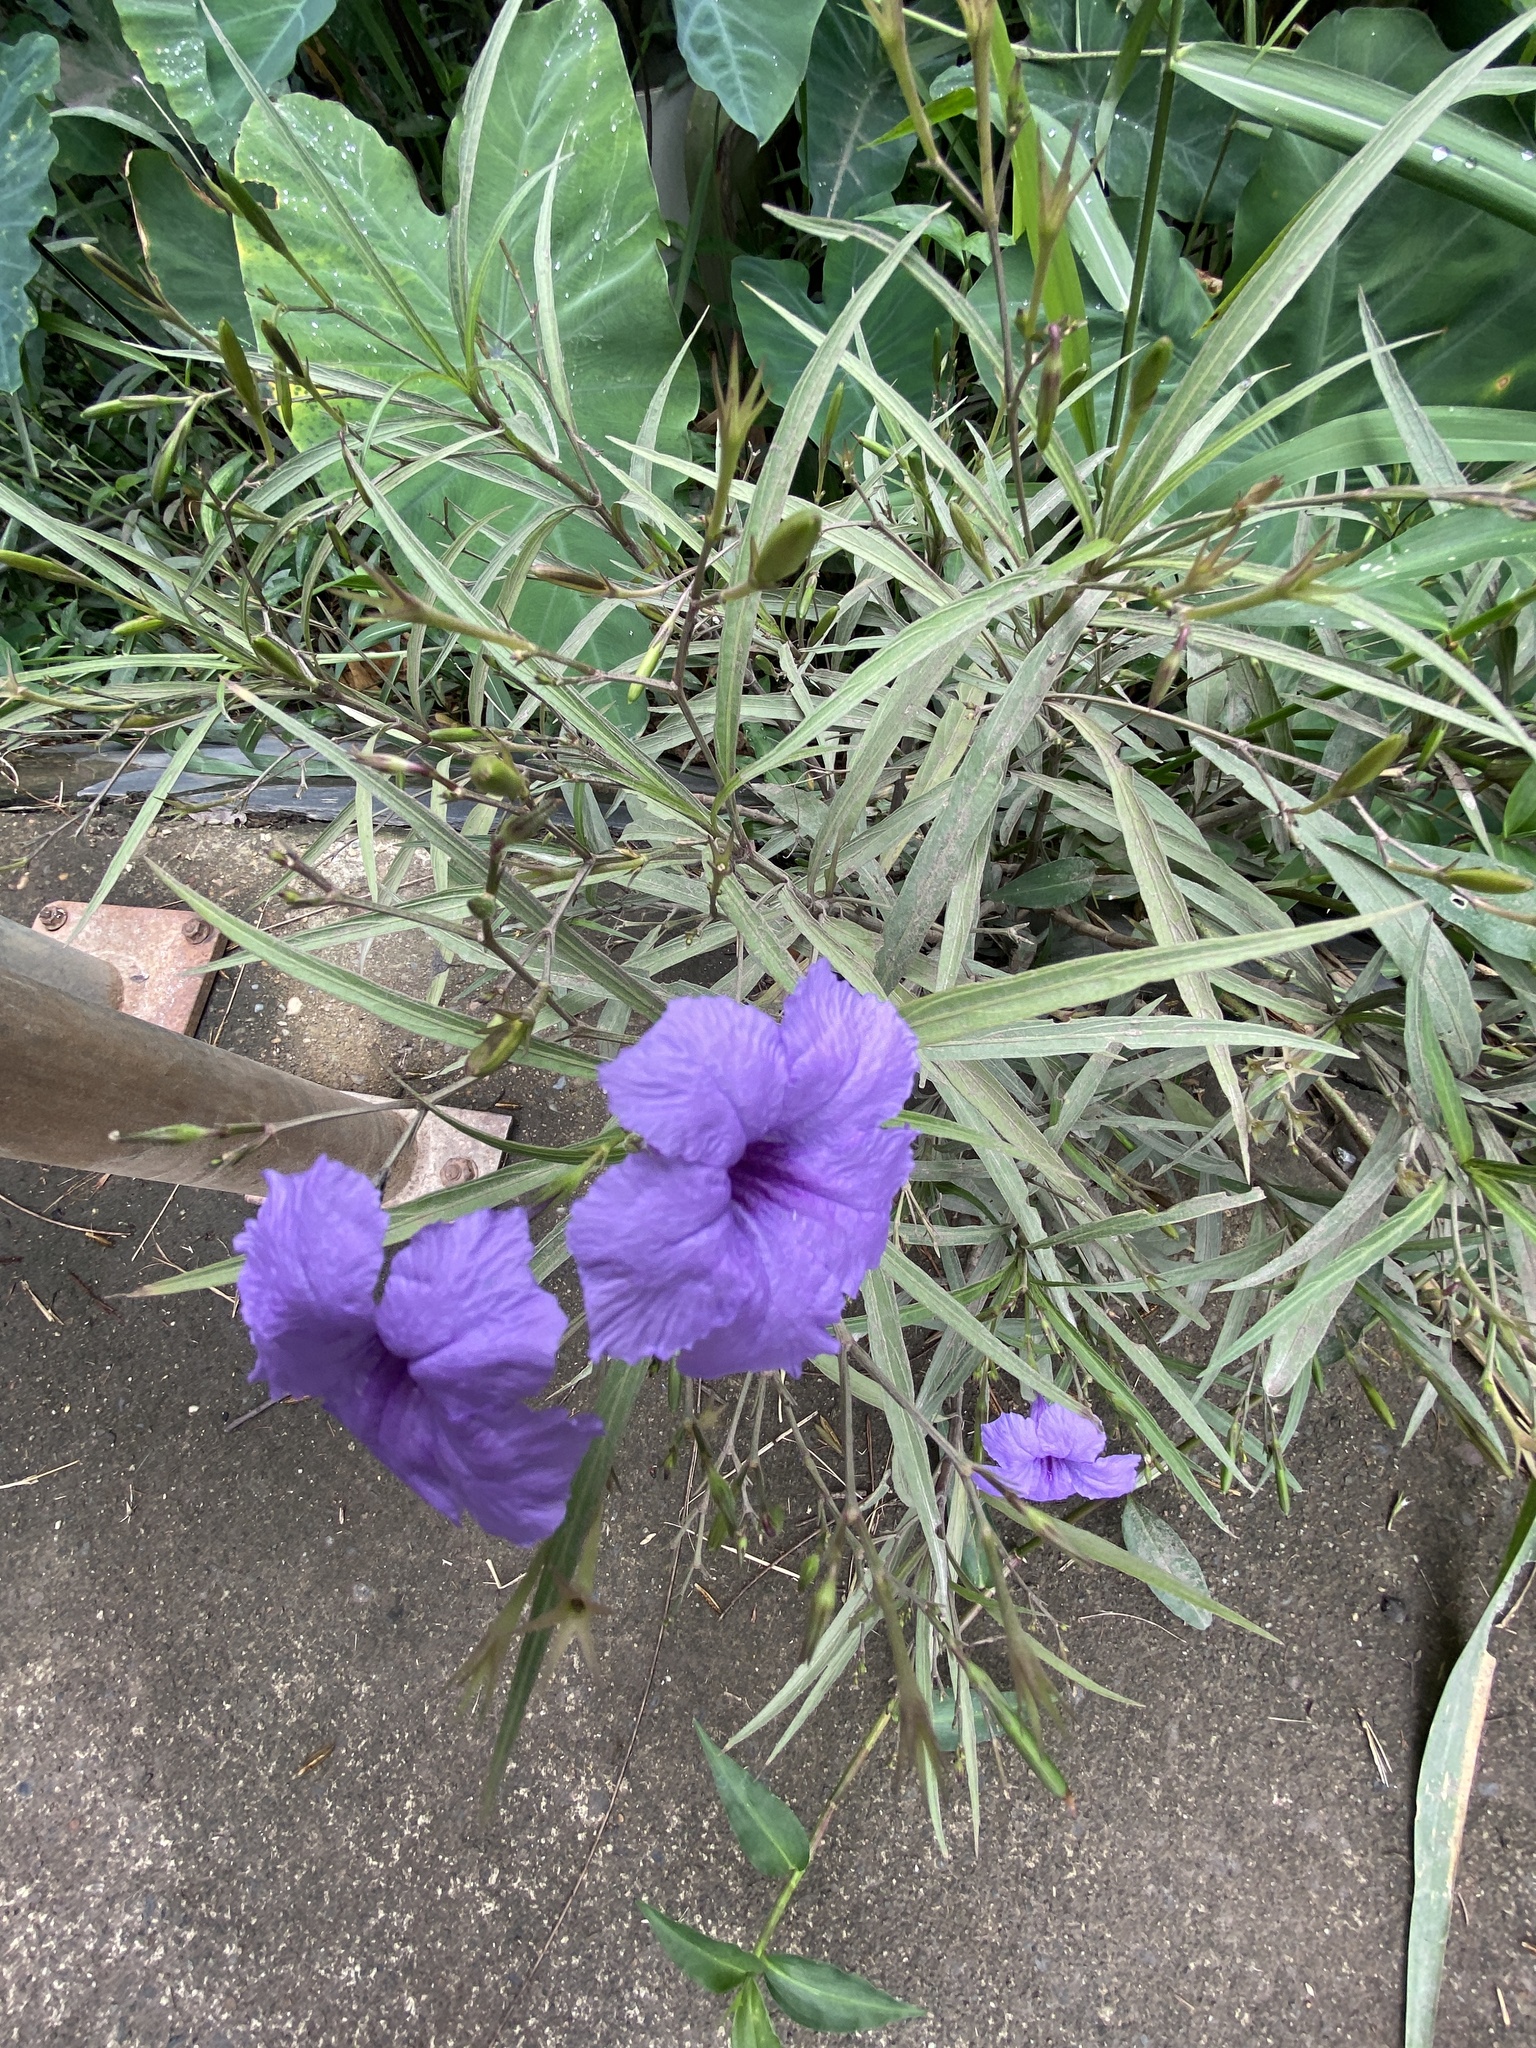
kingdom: Plantae
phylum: Tracheophyta
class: Magnoliopsida
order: Lamiales
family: Acanthaceae
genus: Ruellia
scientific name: Ruellia simplex
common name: Softseed wild petunia
